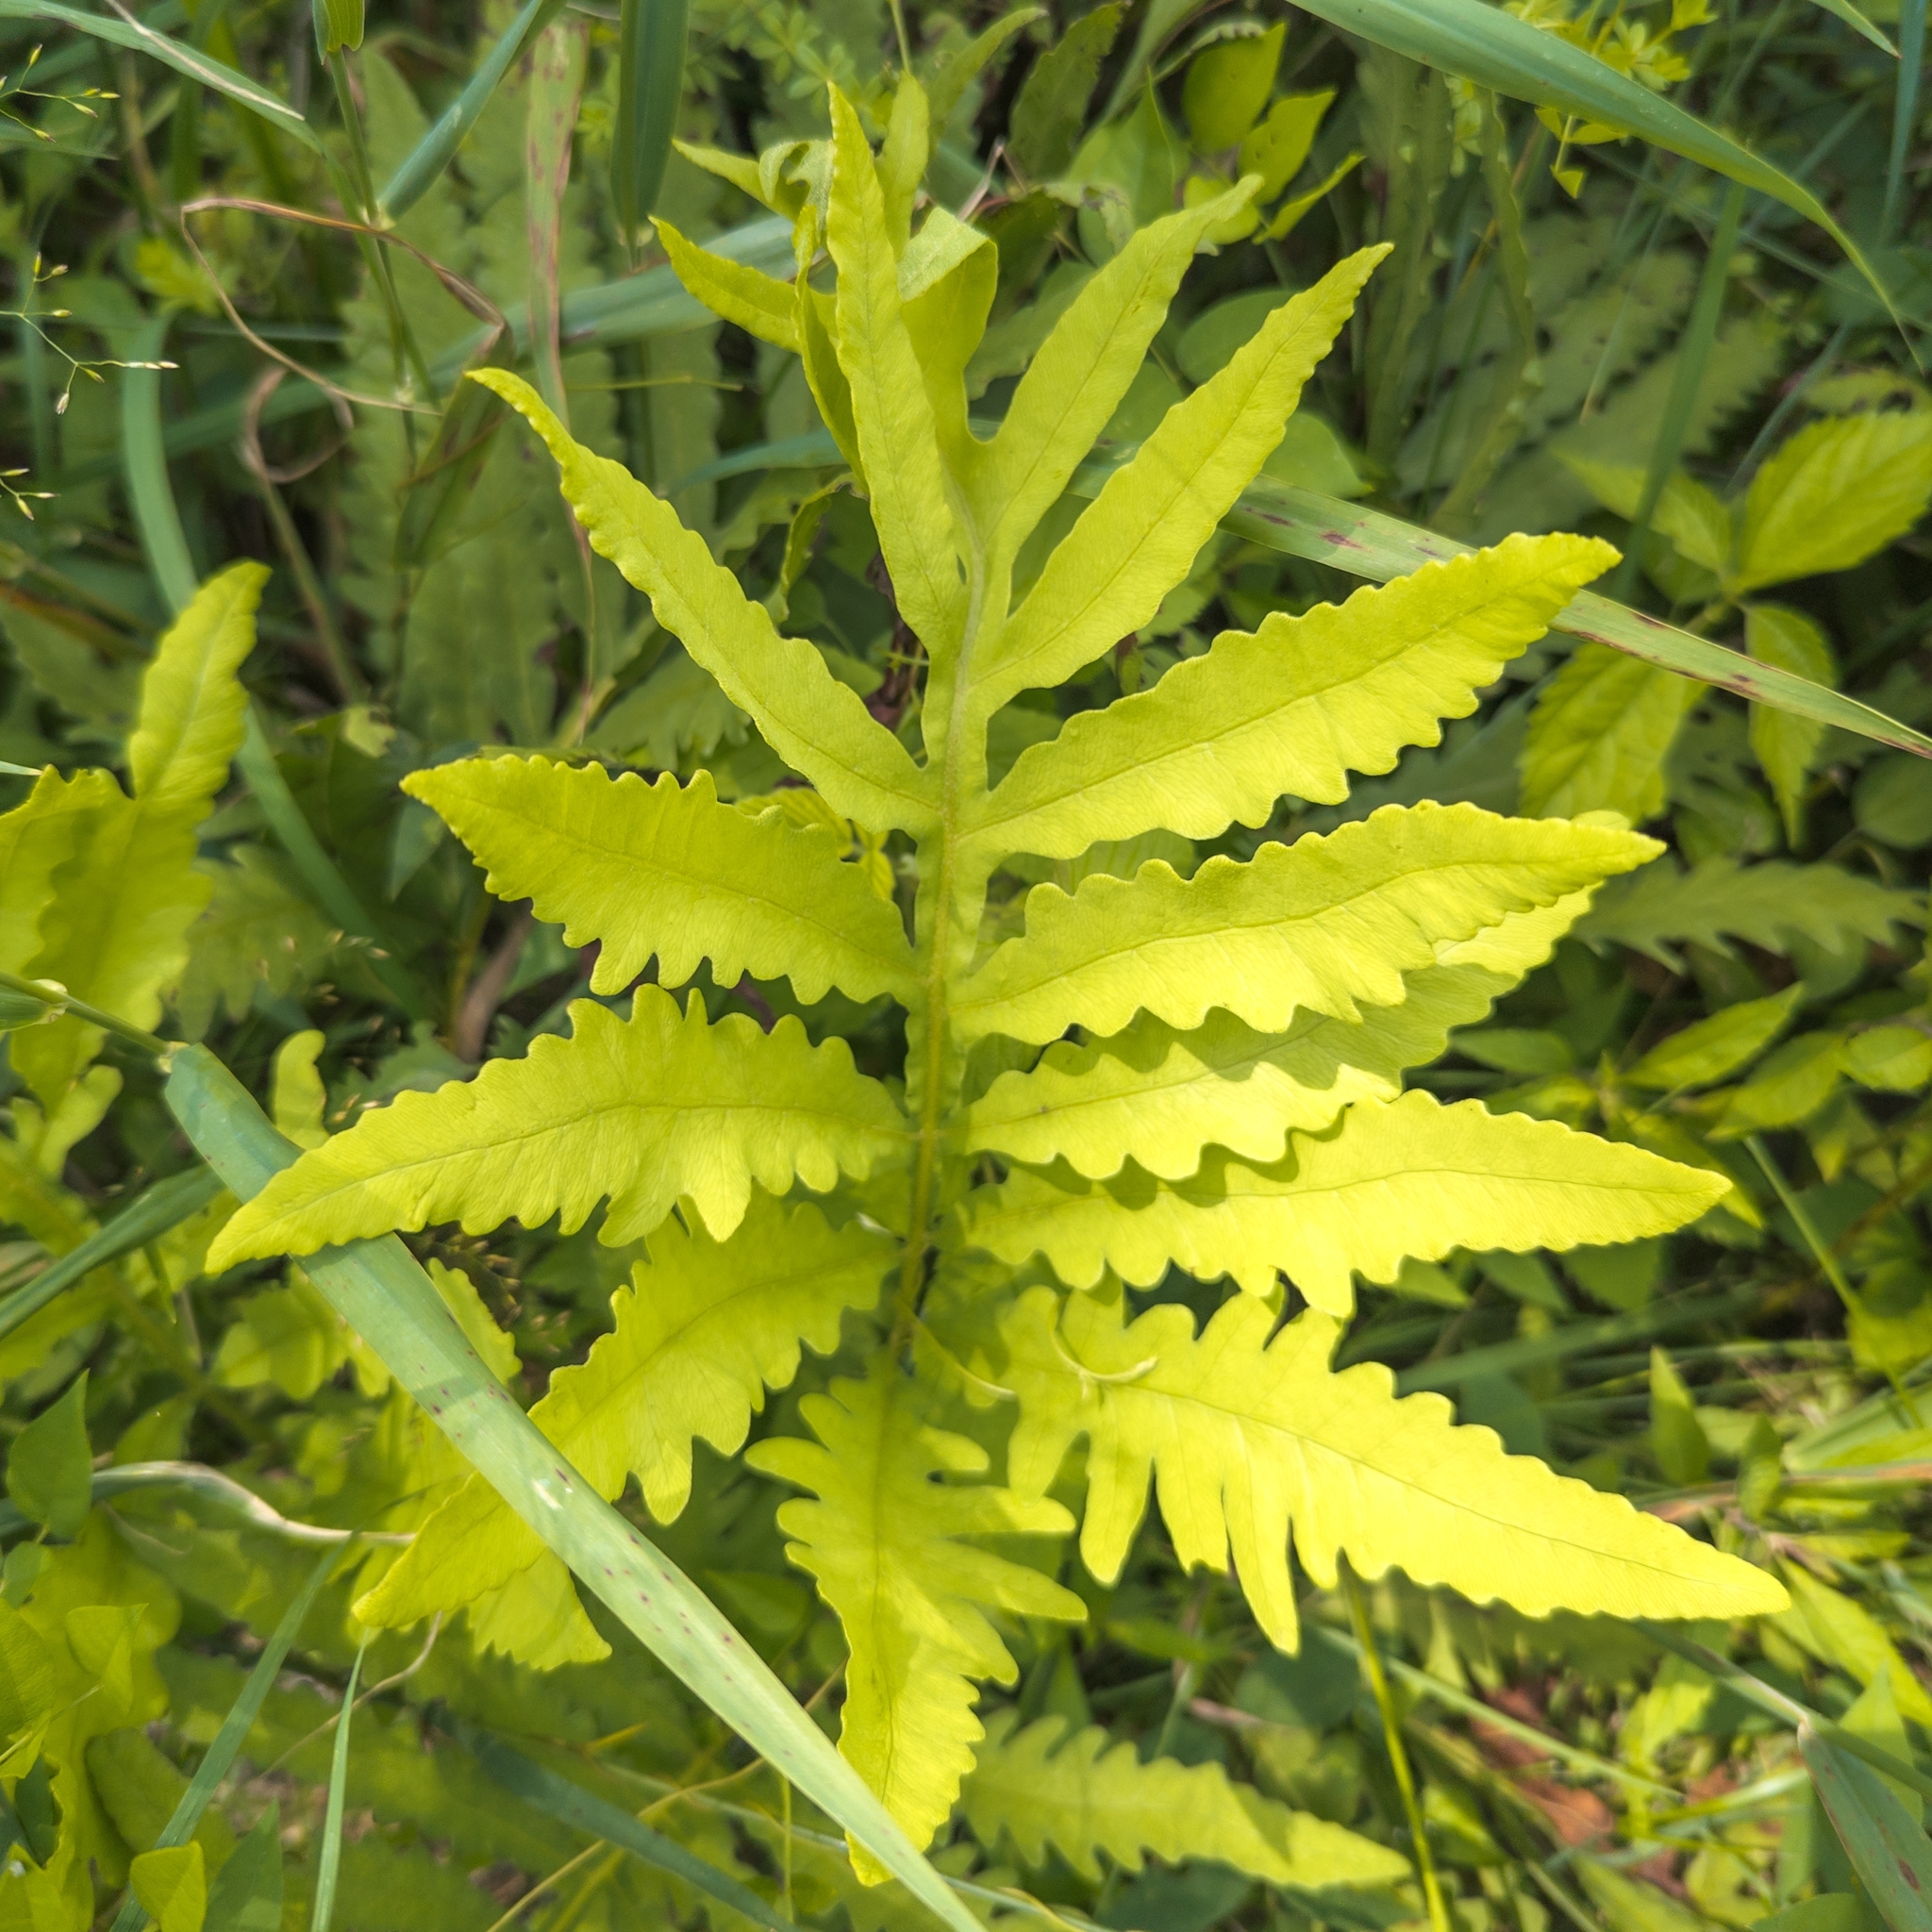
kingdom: Plantae
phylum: Tracheophyta
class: Polypodiopsida
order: Polypodiales
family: Onocleaceae
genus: Onoclea
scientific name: Onoclea sensibilis
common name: Sensitive fern
